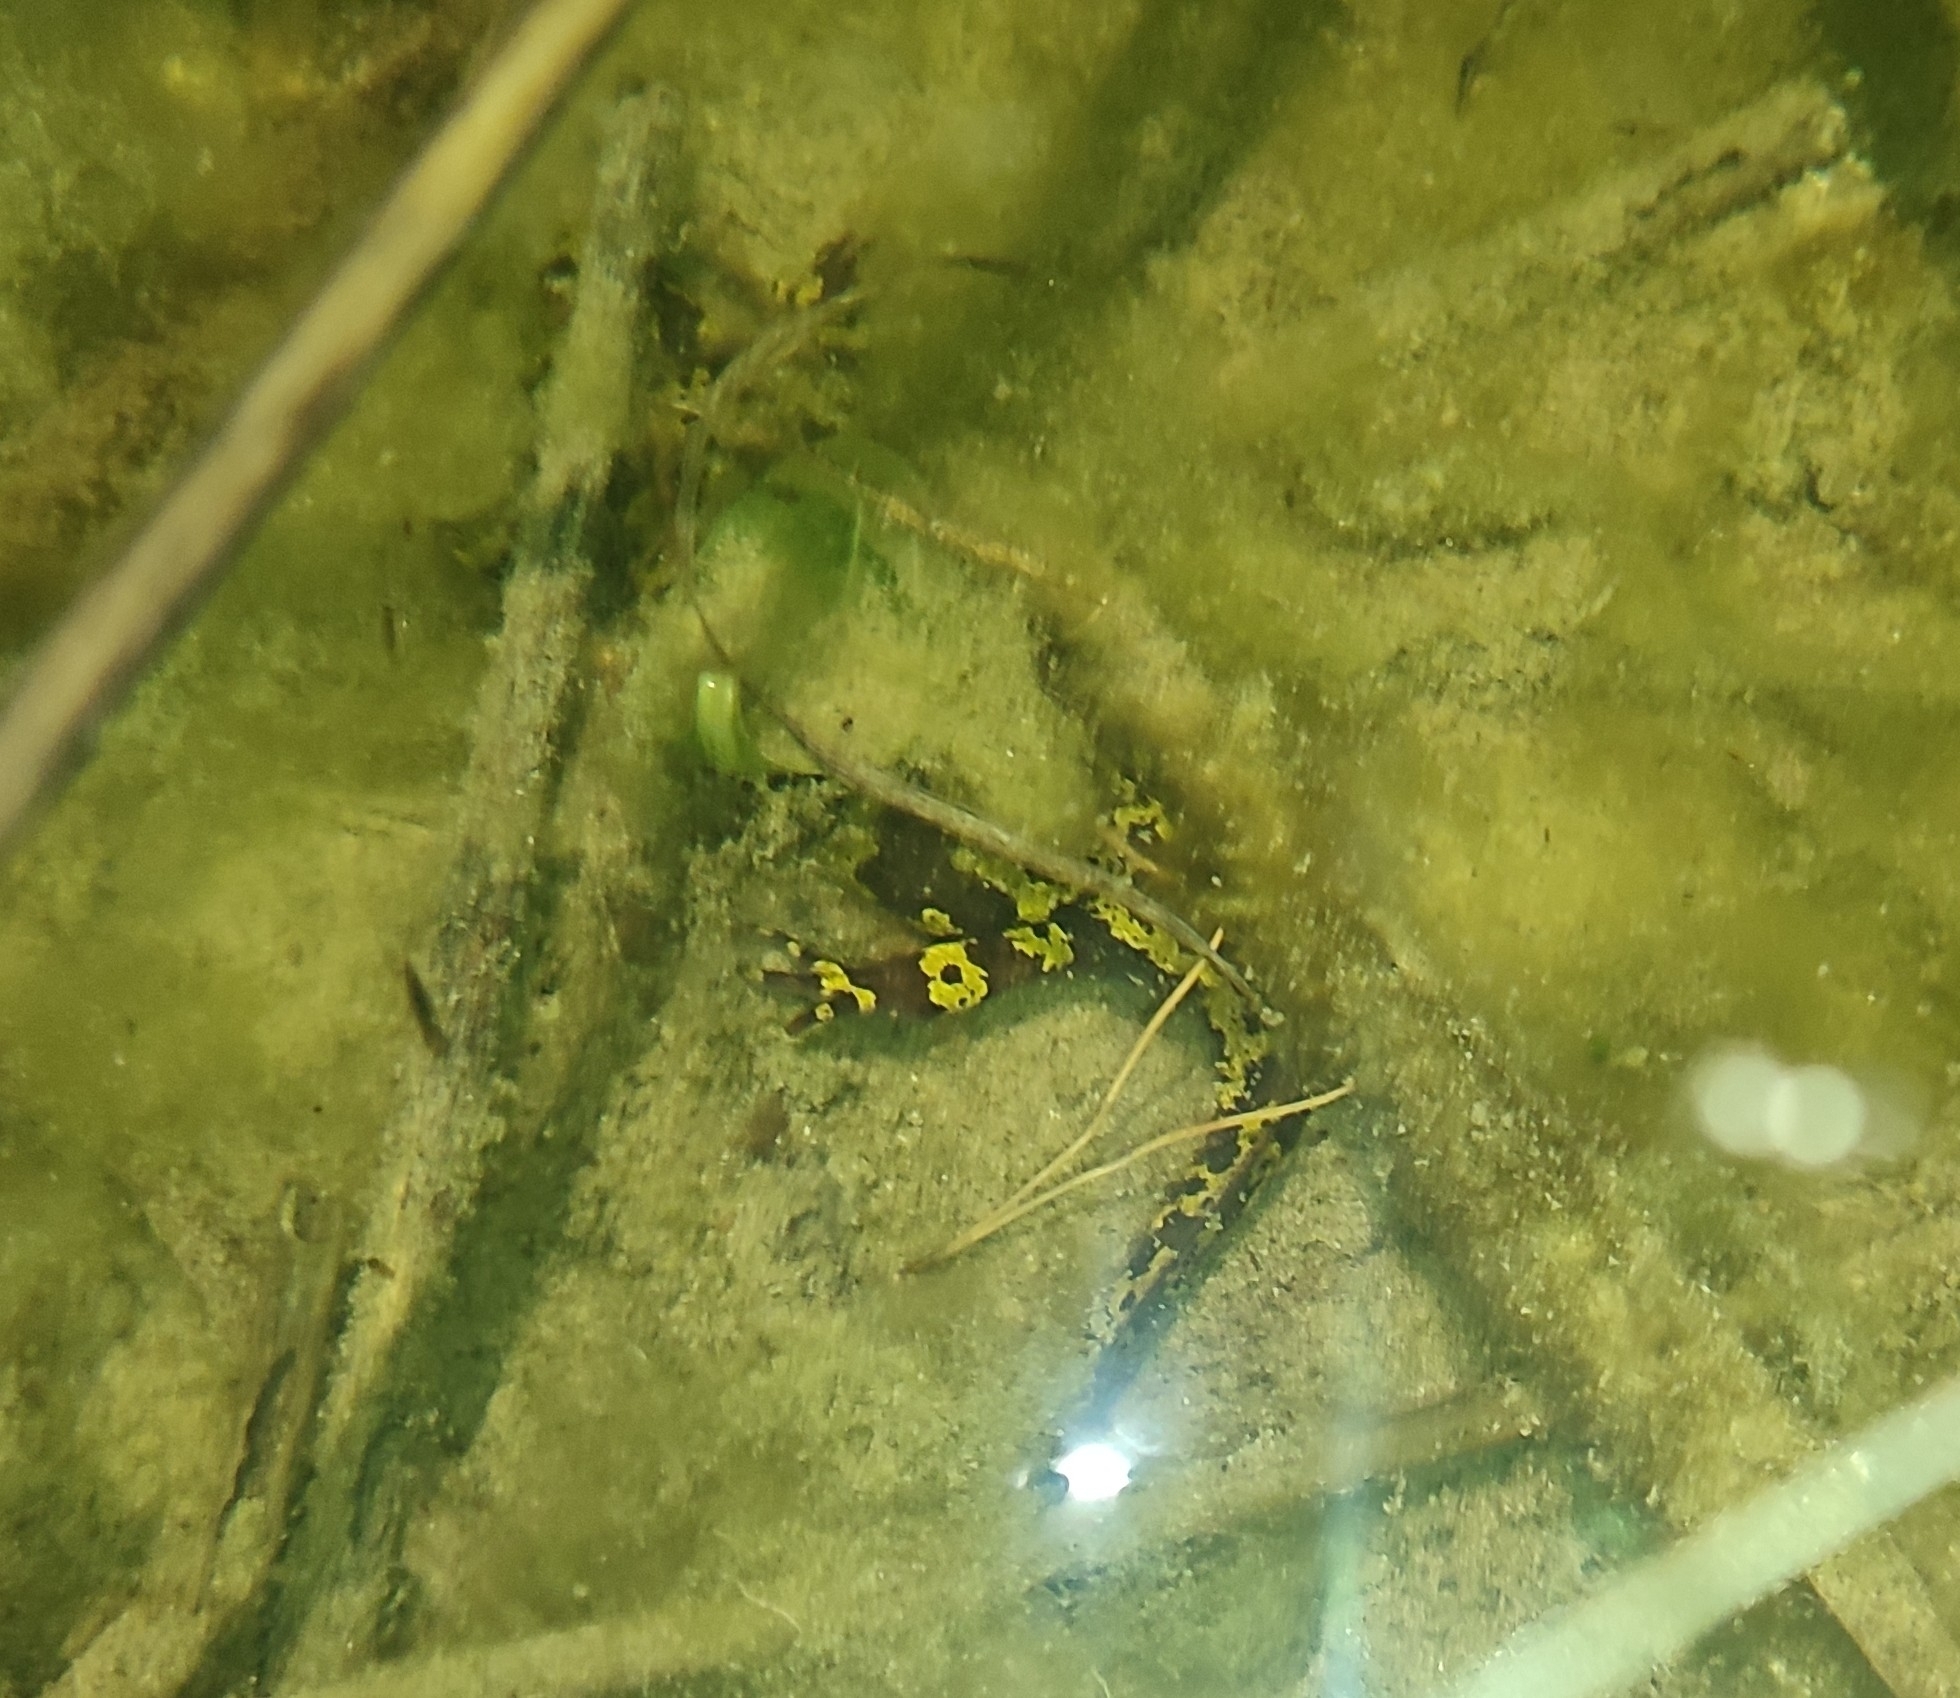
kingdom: Animalia
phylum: Chordata
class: Amphibia
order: Caudata
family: Salamandridae
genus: Triturus
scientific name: Triturus marmoratus
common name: Marbled newt
